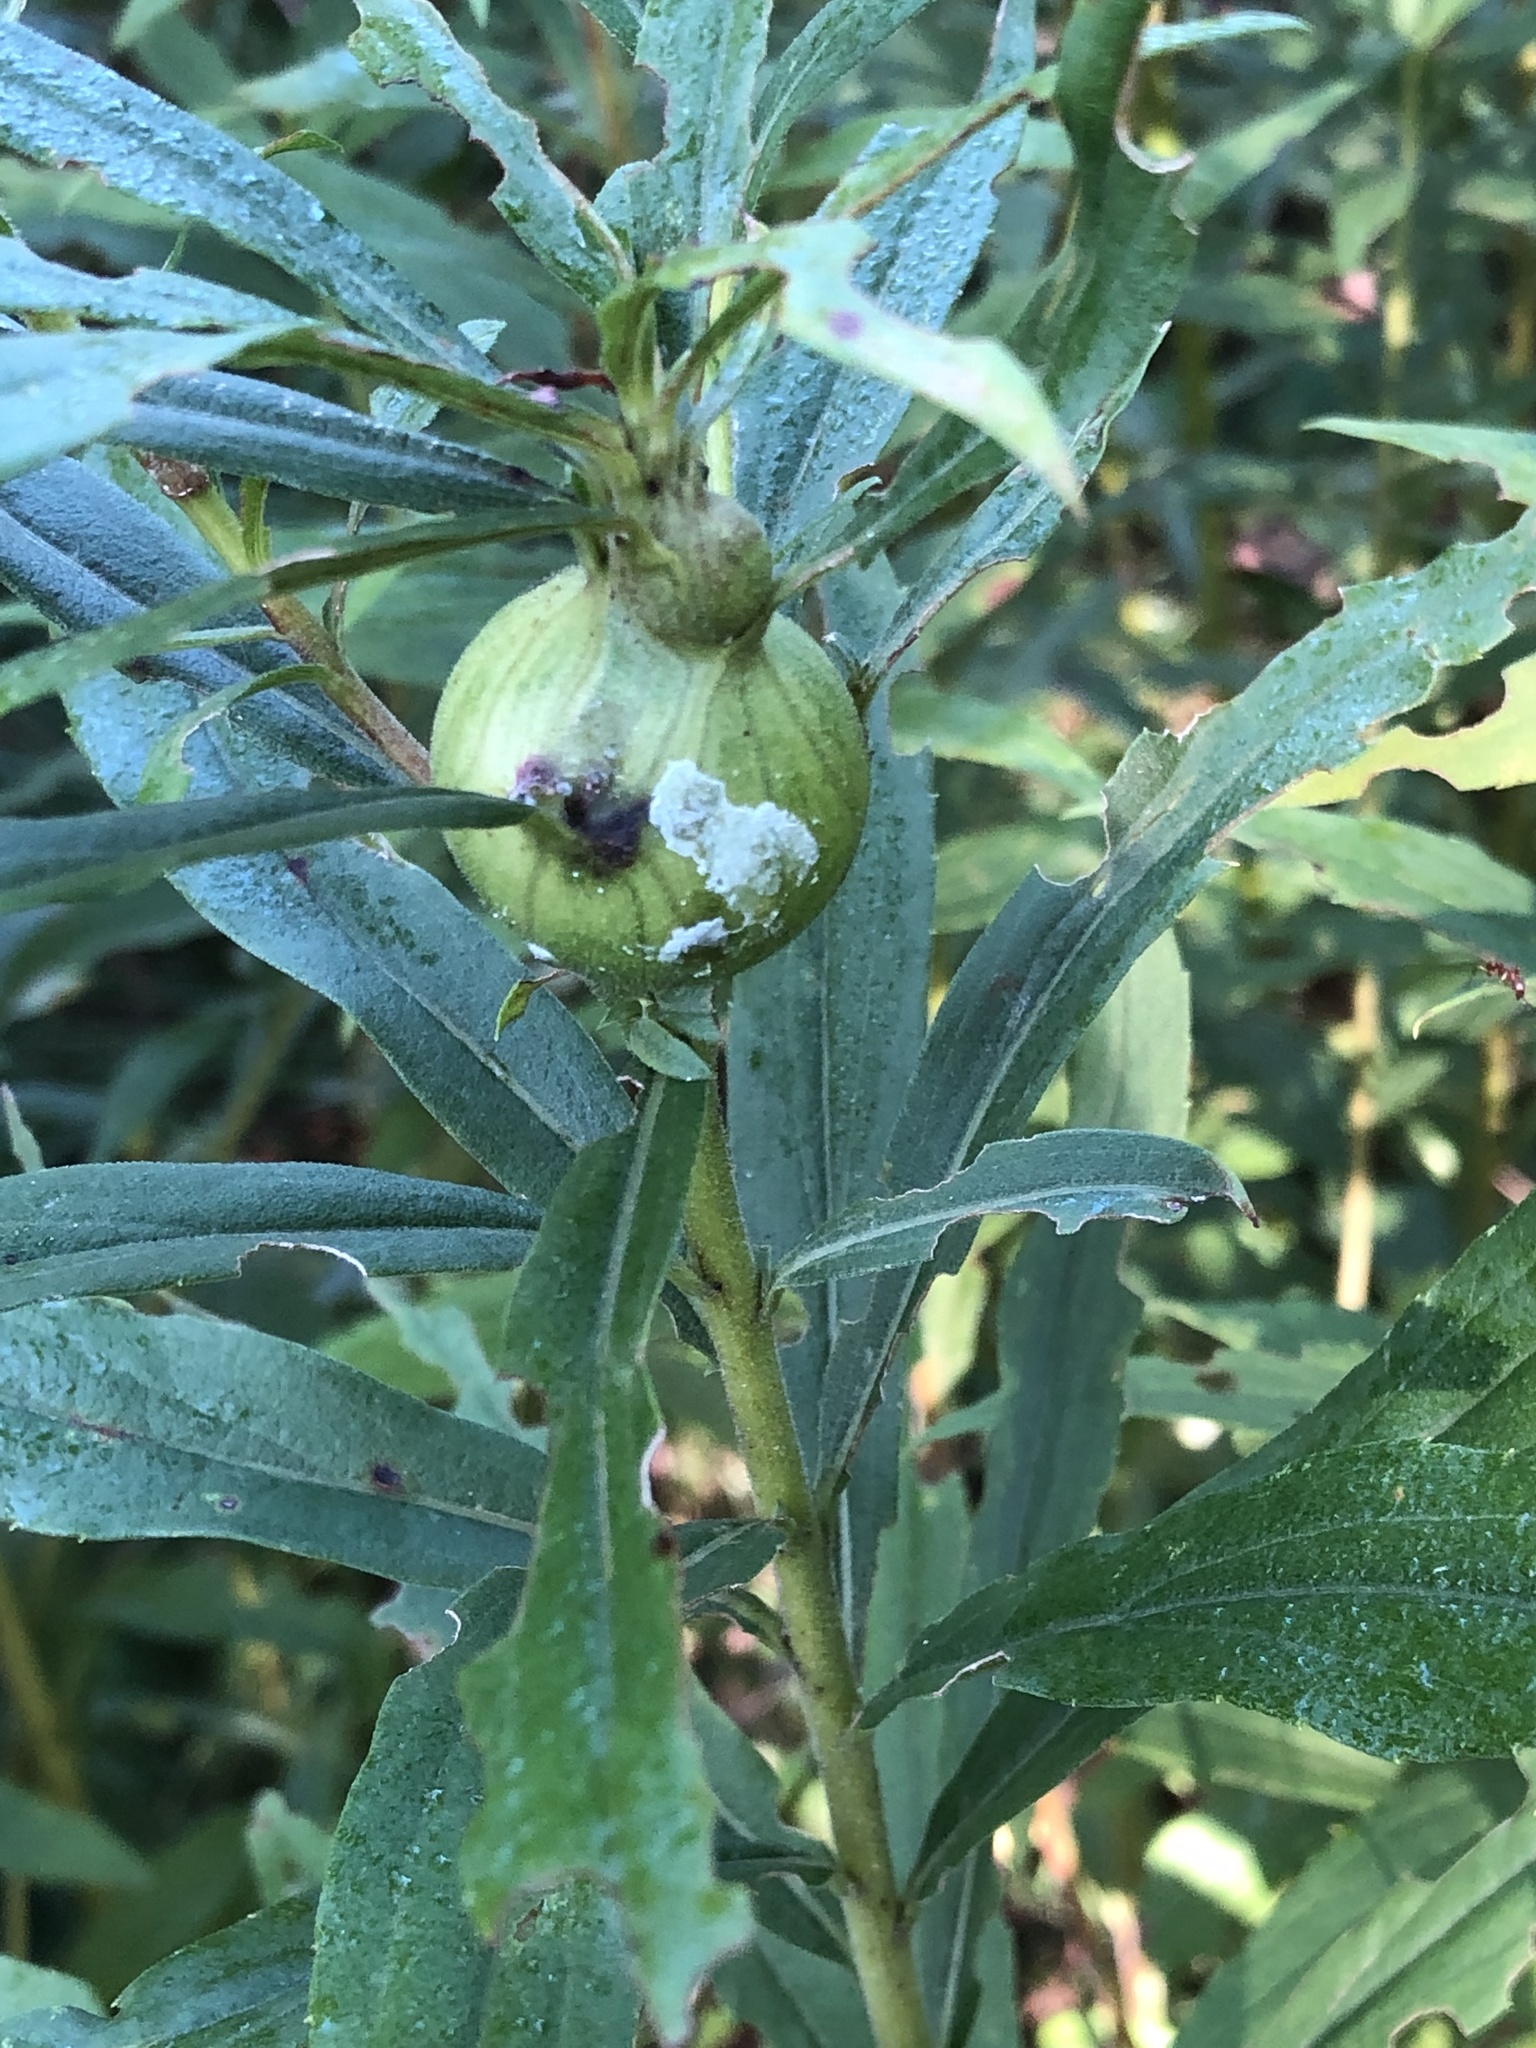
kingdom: Animalia
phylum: Arthropoda
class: Insecta
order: Diptera
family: Tephritidae
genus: Eurosta
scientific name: Eurosta solidaginis
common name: Goldenrod gall fly
